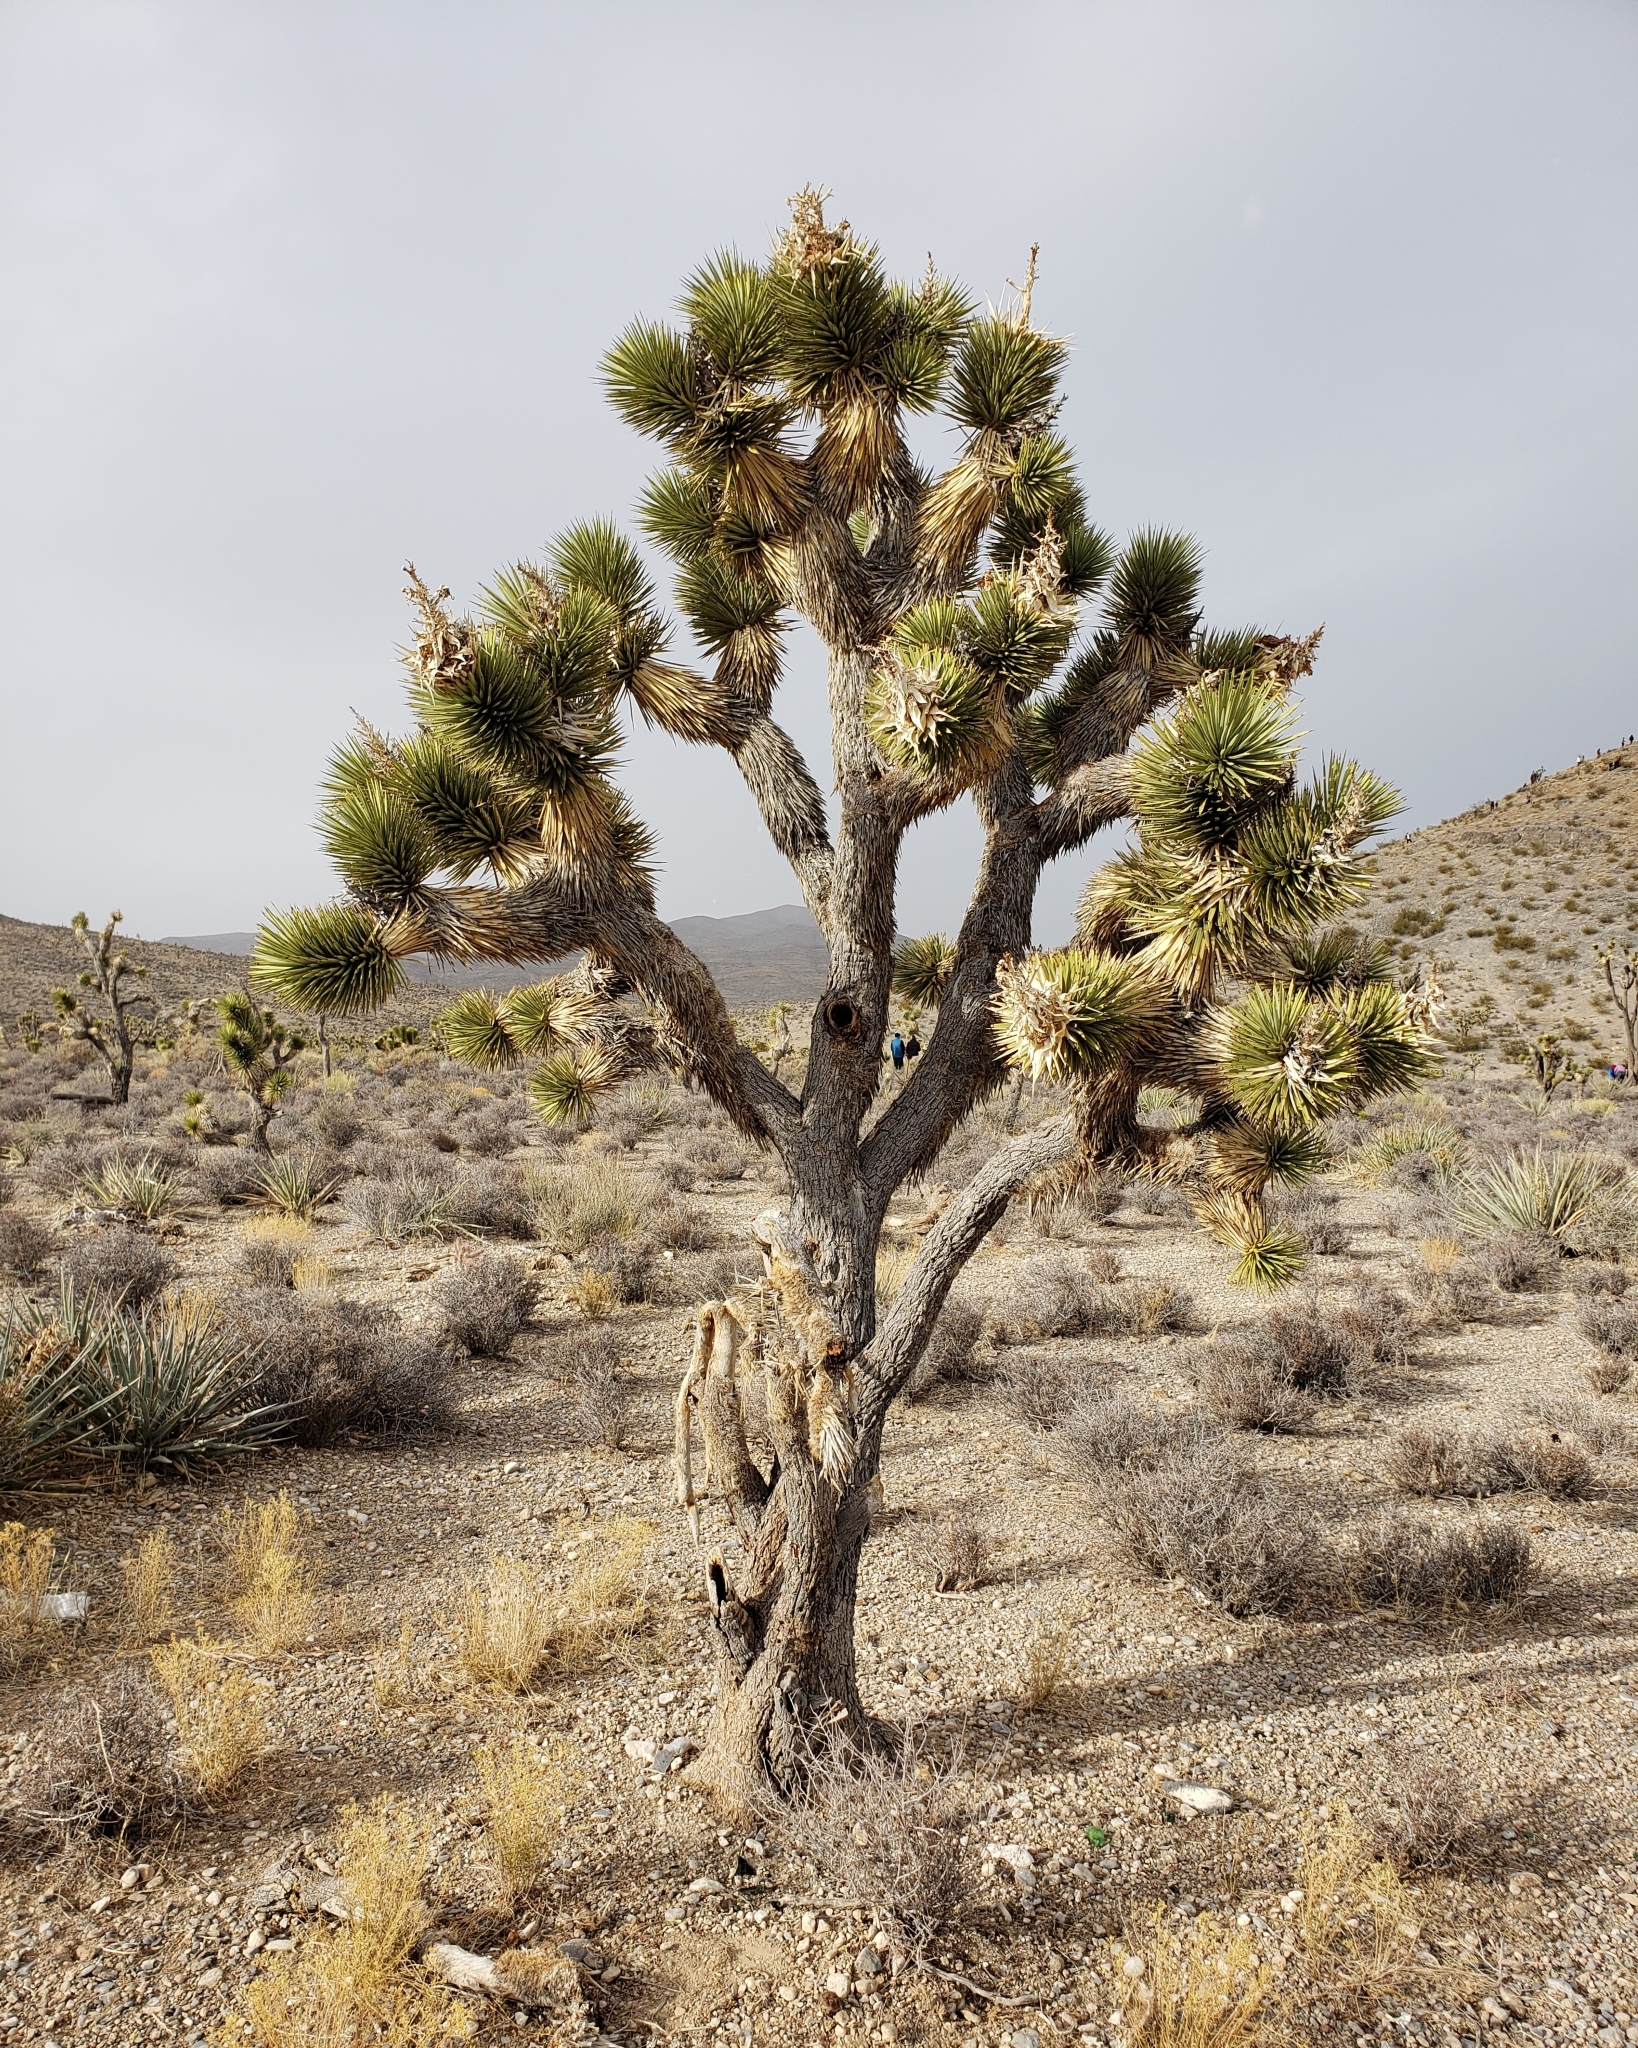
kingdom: Plantae
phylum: Tracheophyta
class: Liliopsida
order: Asparagales
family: Asparagaceae
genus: Yucca
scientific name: Yucca brevifolia
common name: Joshua tree
